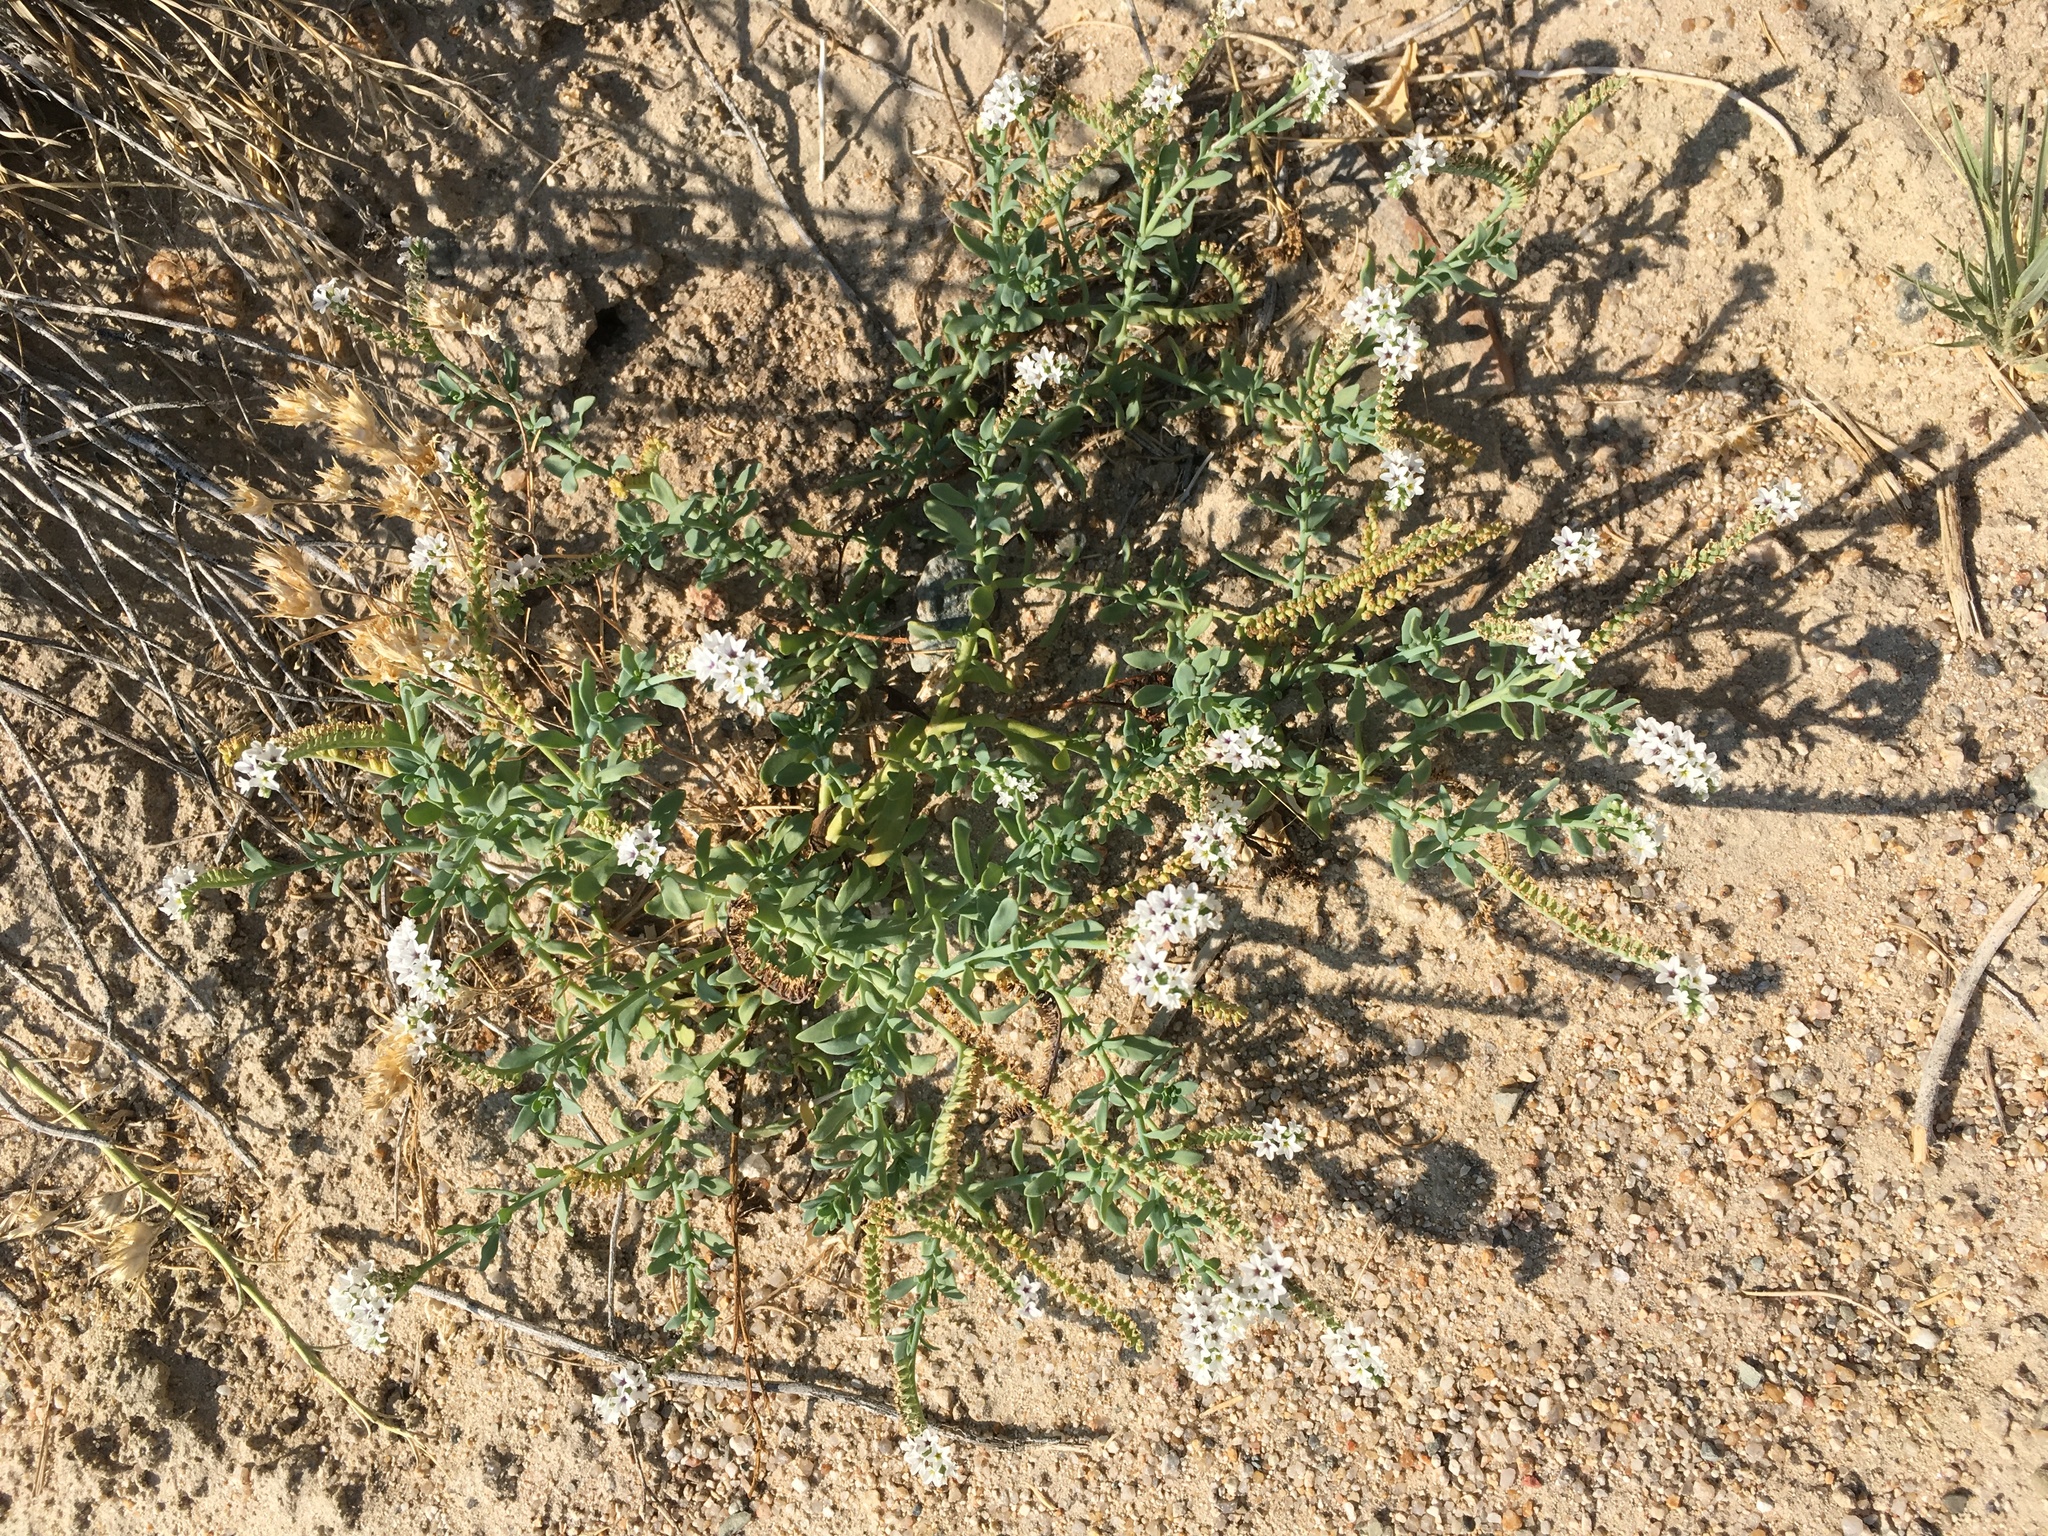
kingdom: Plantae
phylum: Tracheophyta
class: Magnoliopsida
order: Boraginales
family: Heliotropiaceae
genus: Heliotropium
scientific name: Heliotropium curassavicum
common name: Seaside heliotrope
